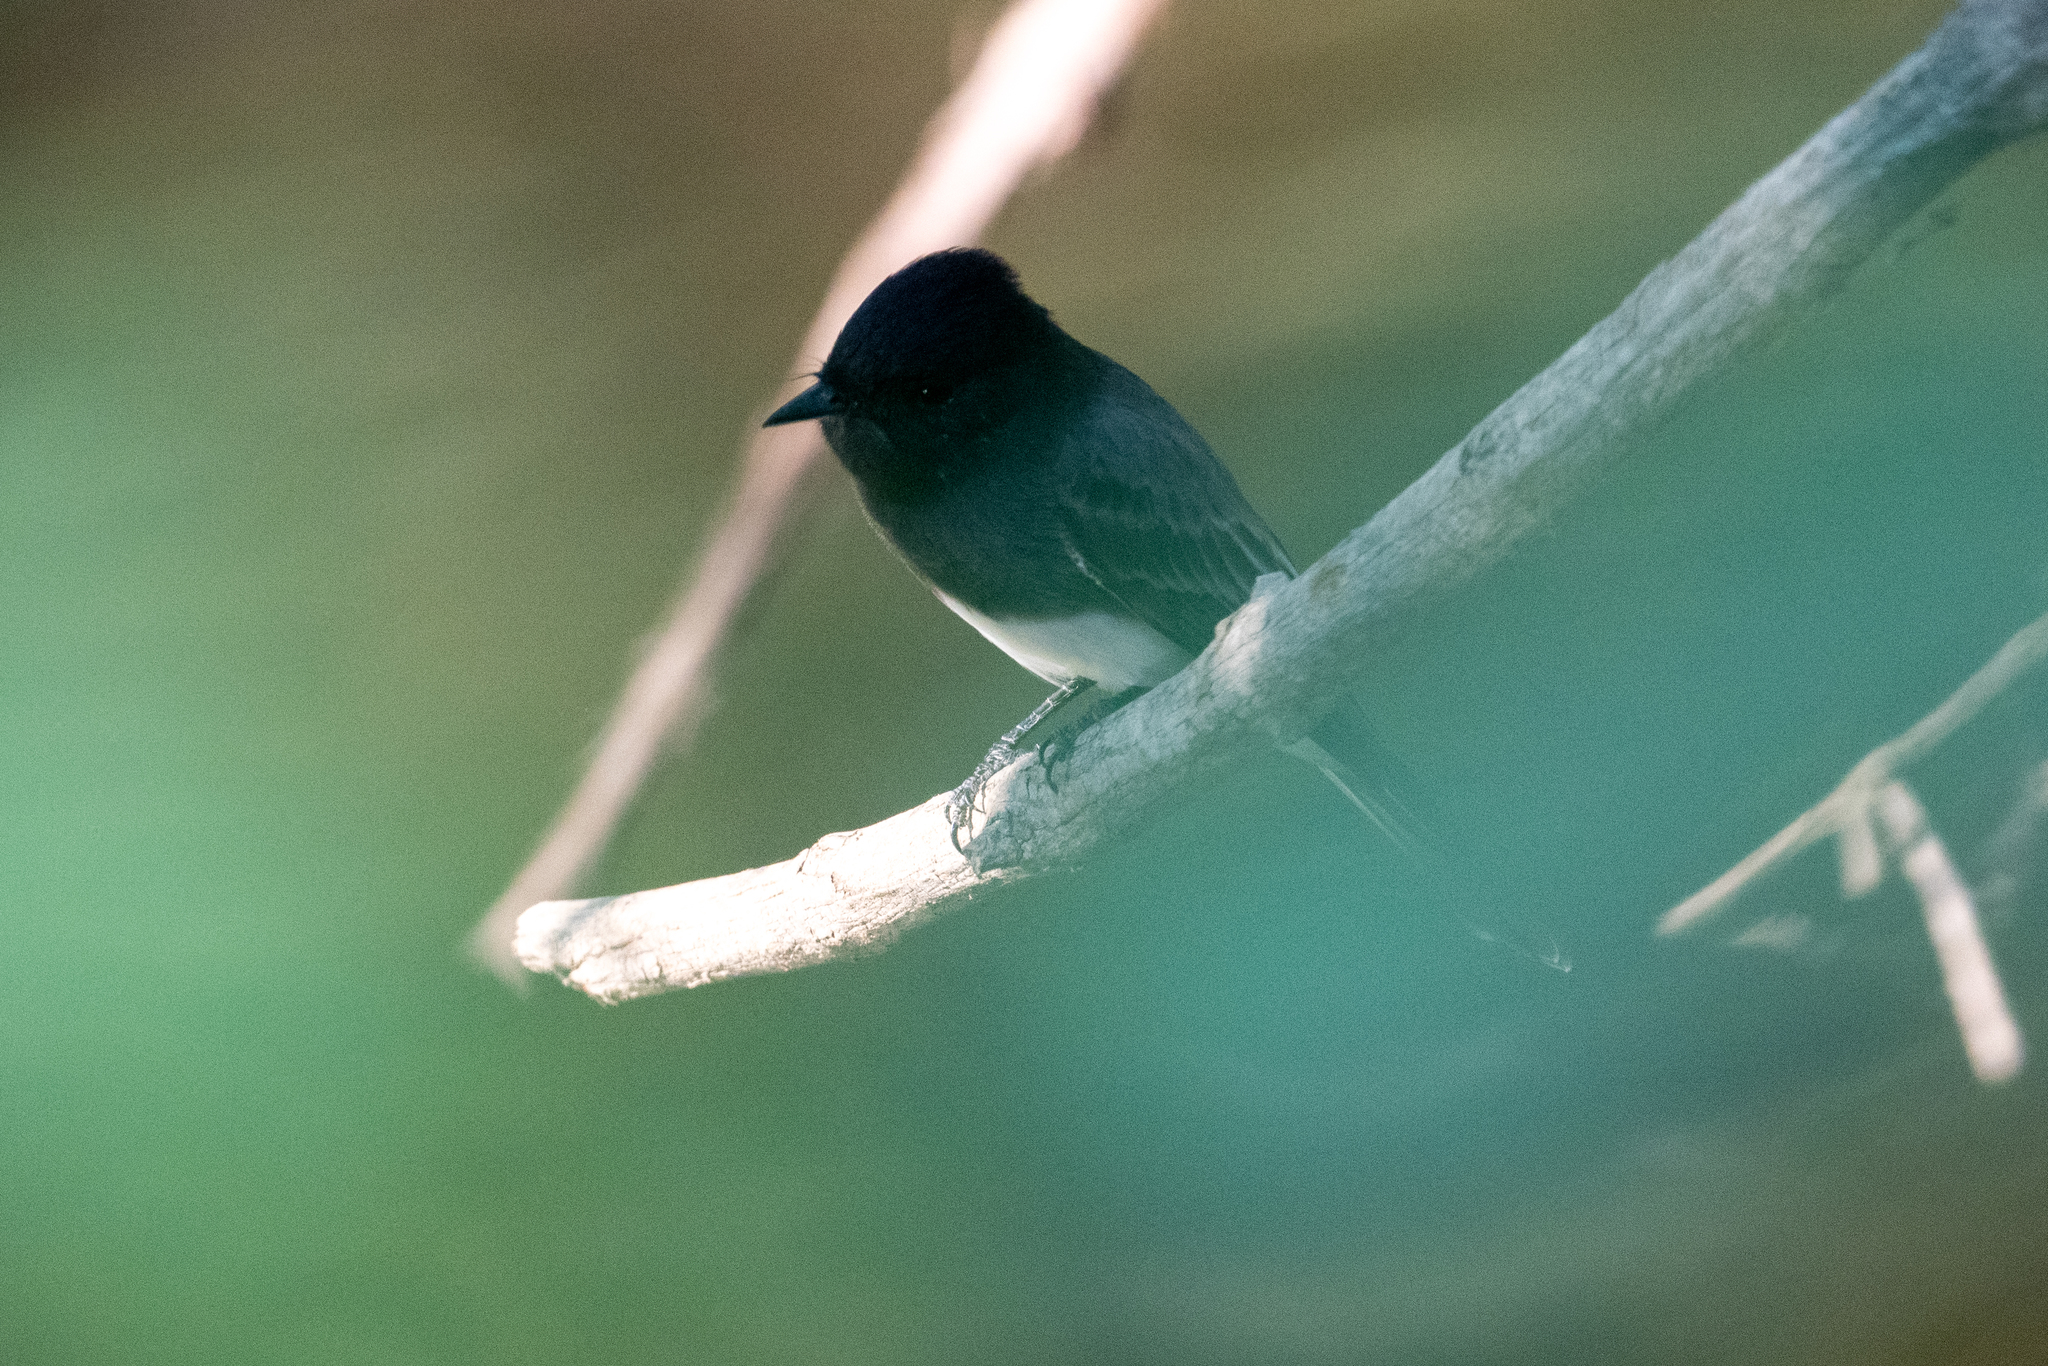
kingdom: Animalia
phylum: Chordata
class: Aves
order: Passeriformes
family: Tyrannidae
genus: Sayornis
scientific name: Sayornis nigricans
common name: Black phoebe
